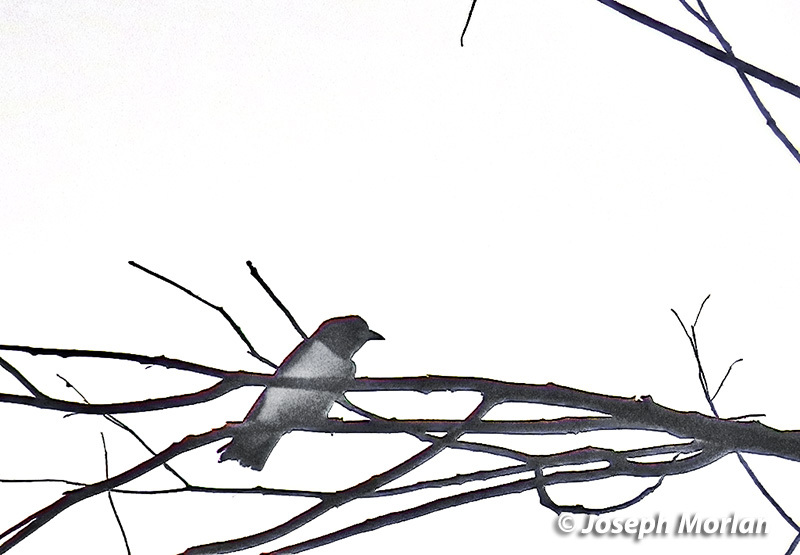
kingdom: Animalia
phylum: Chordata
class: Aves
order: Passeriformes
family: Artamidae
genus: Artamus
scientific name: Artamus leucoryn
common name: White-breasted woodswallow
